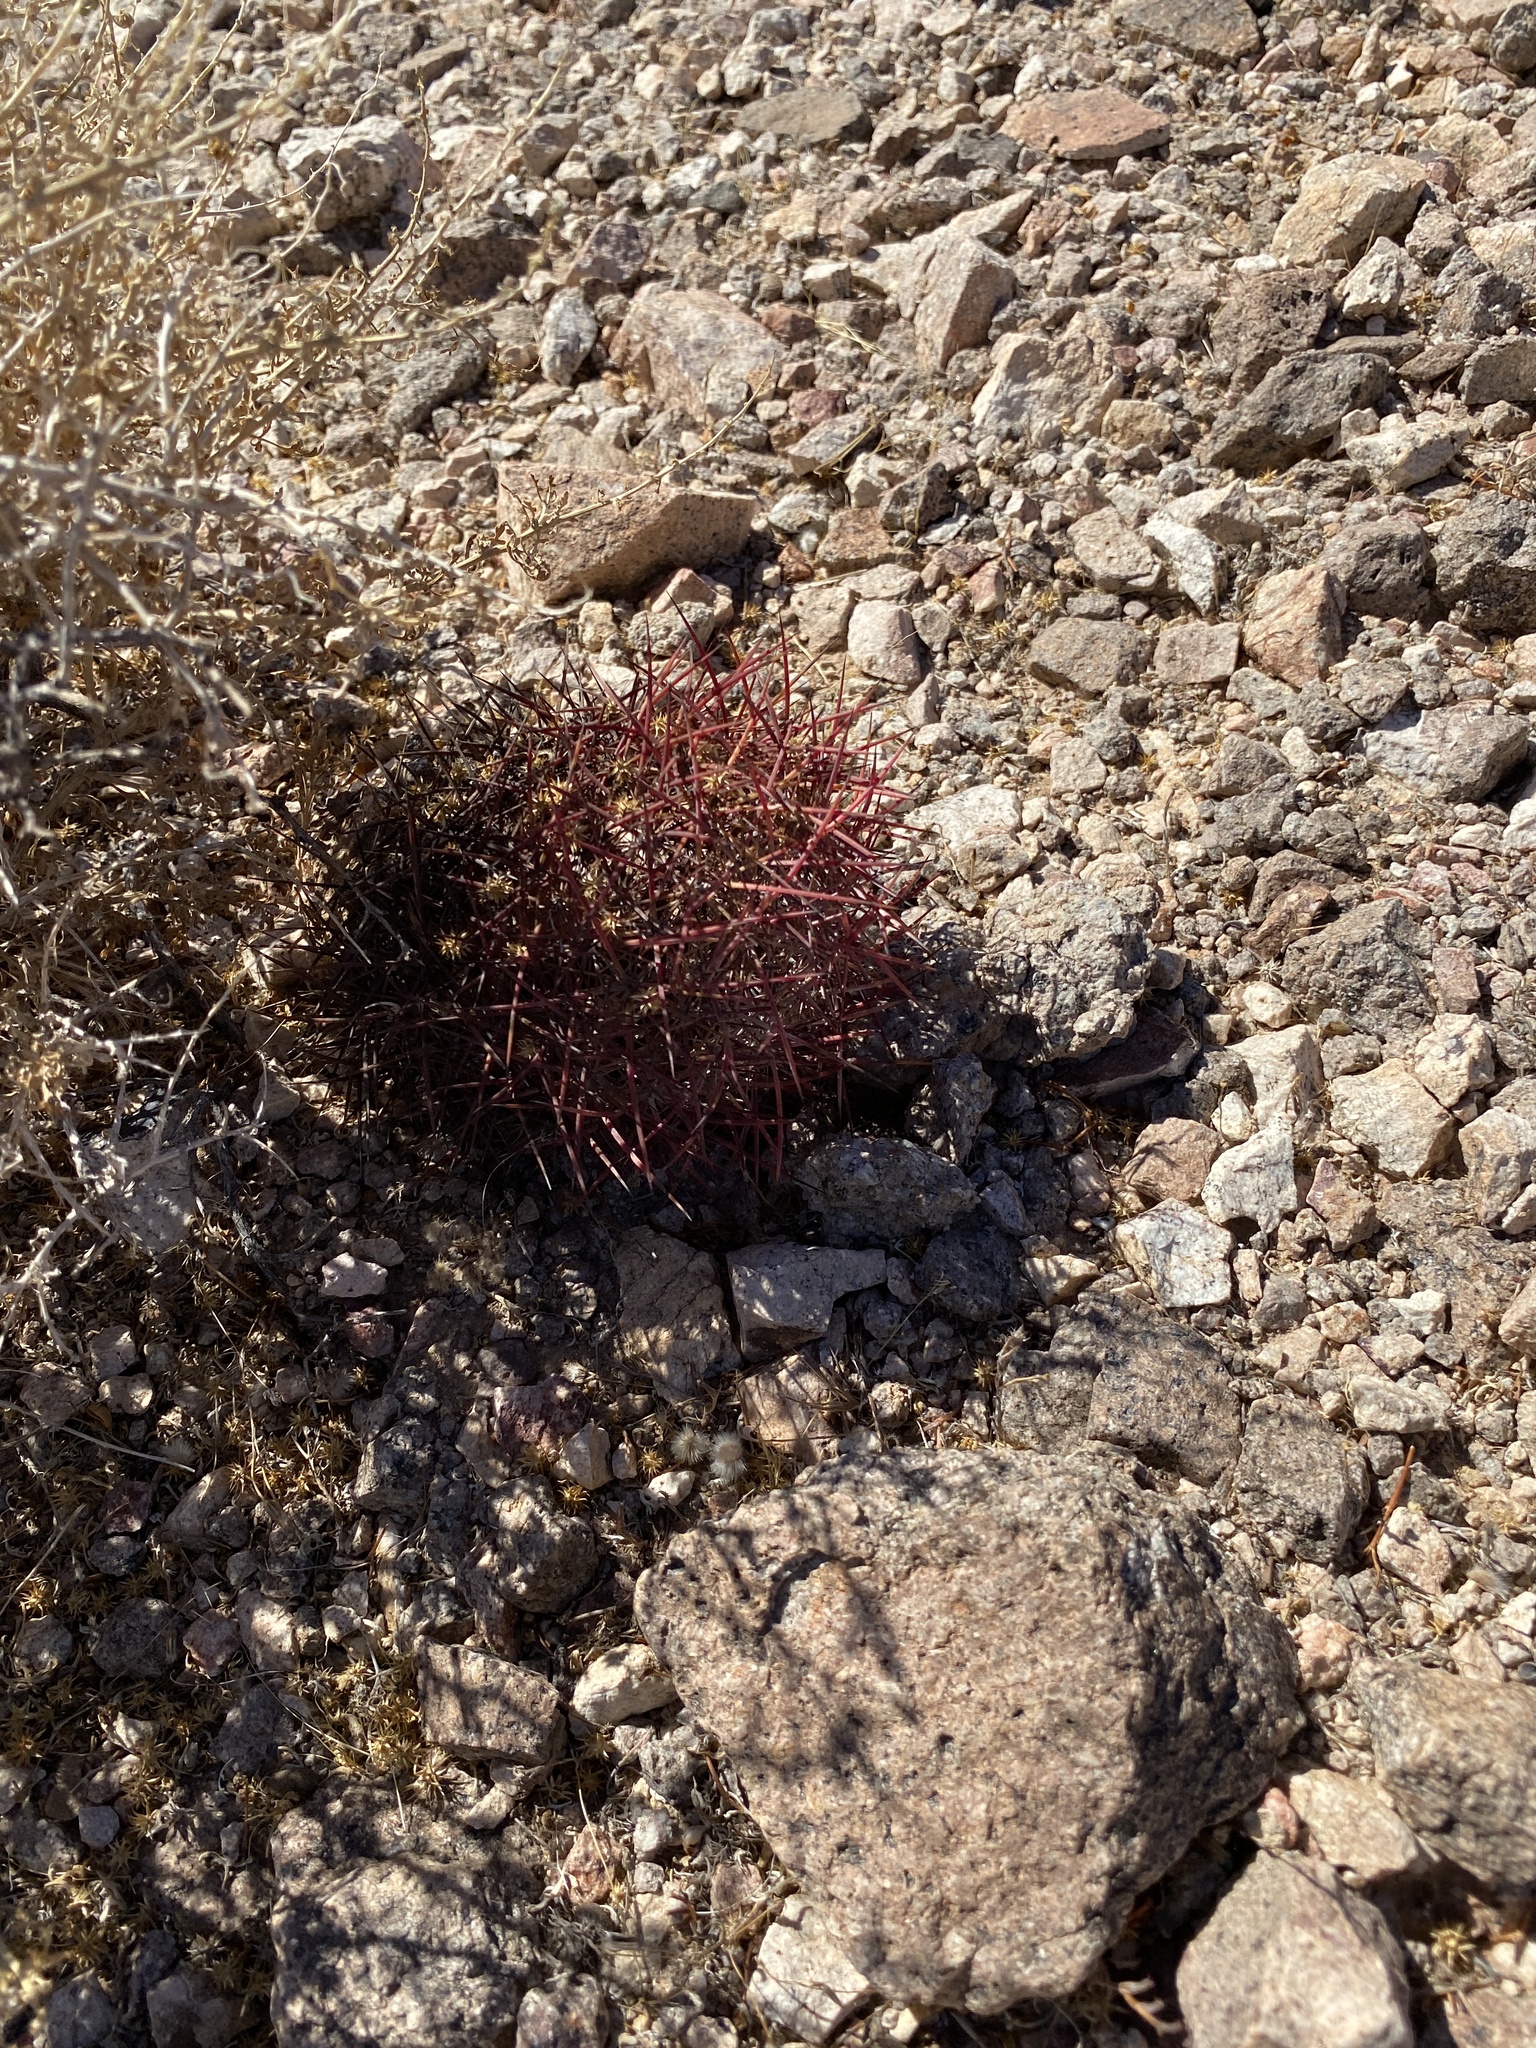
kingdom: Plantae
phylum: Tracheophyta
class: Magnoliopsida
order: Caryophyllales
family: Cactaceae
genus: Sclerocactus
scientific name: Sclerocactus johnsonii
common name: Eight-spine fishhook cactus
